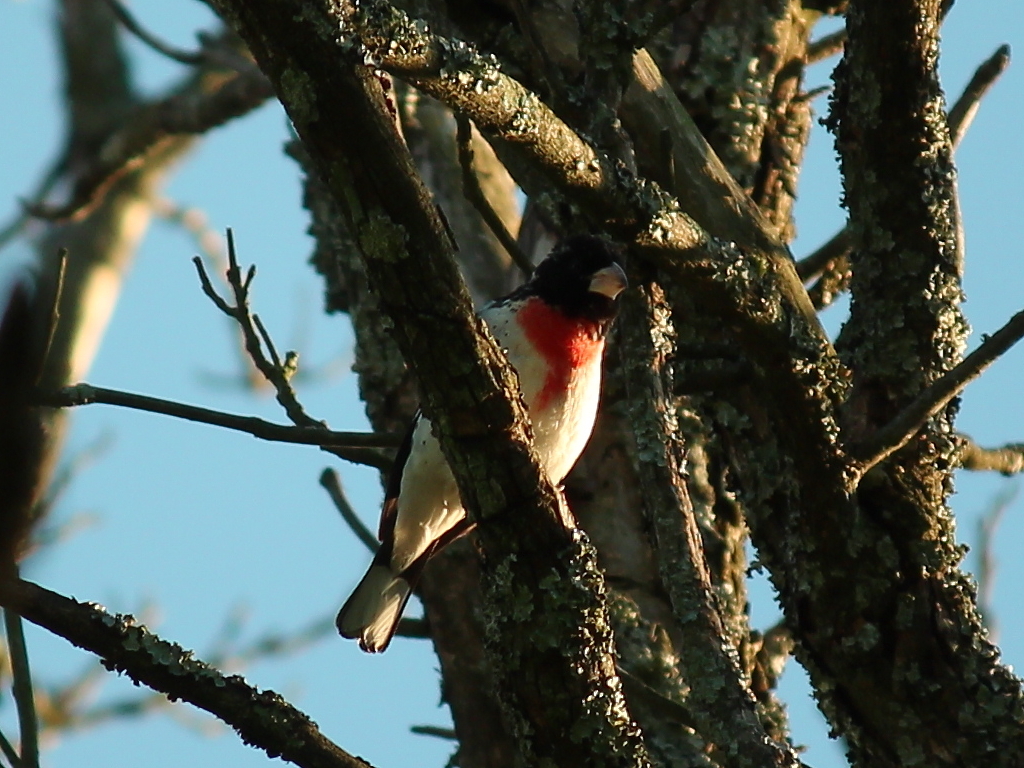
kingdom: Animalia
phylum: Chordata
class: Aves
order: Passeriformes
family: Cardinalidae
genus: Pheucticus
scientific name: Pheucticus ludovicianus
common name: Rose-breasted grosbeak
